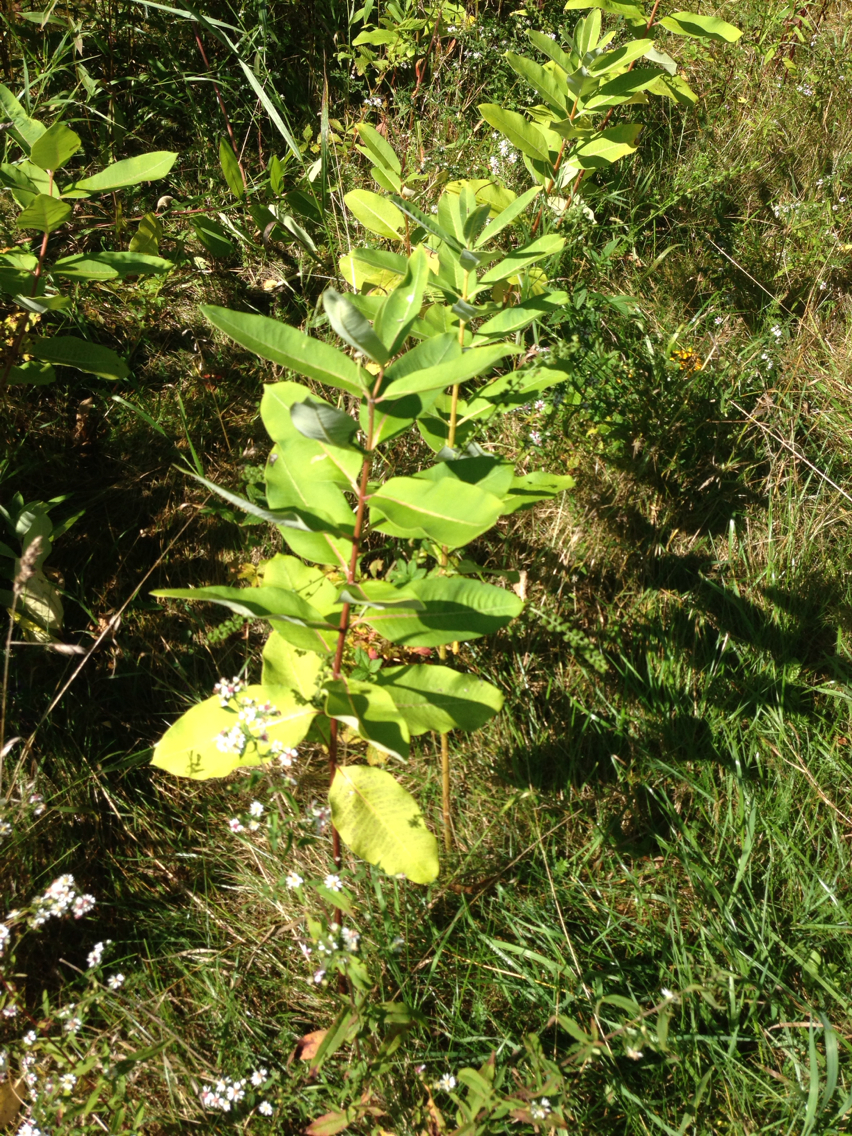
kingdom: Plantae
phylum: Tracheophyta
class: Magnoliopsida
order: Gentianales
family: Apocynaceae
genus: Asclepias
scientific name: Asclepias syriaca
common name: Common milkweed
